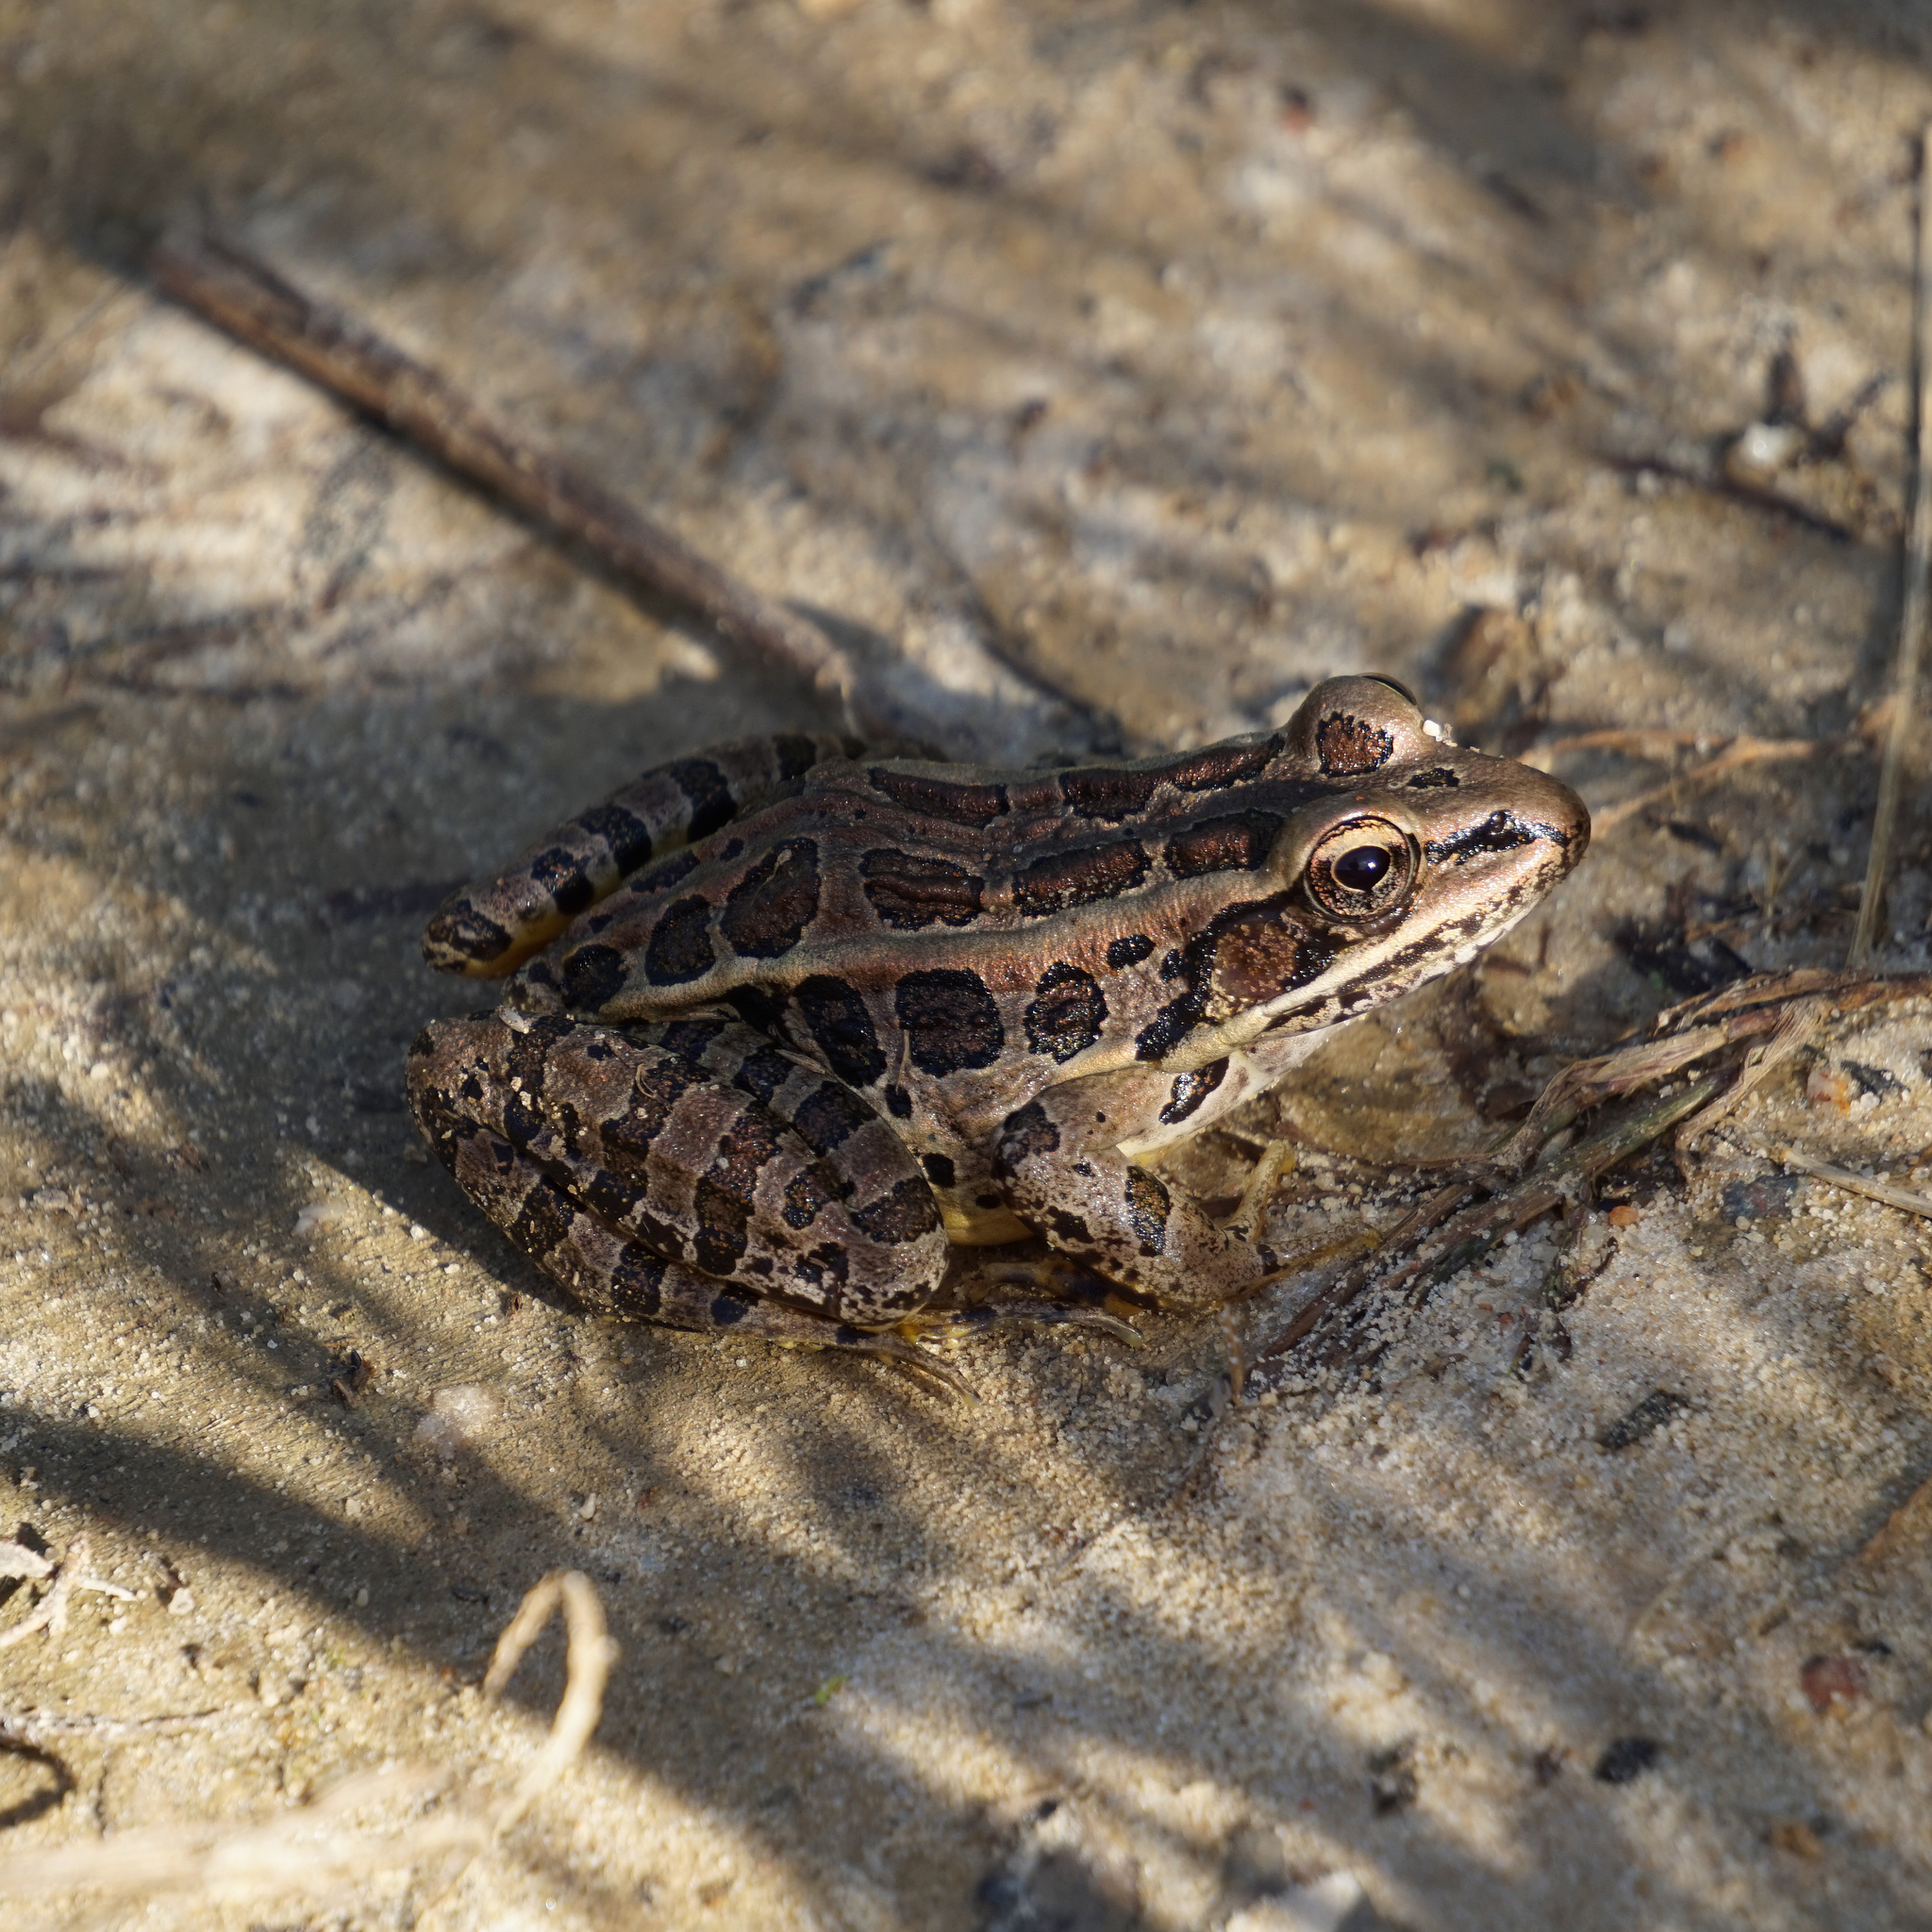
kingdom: Animalia
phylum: Chordata
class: Amphibia
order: Anura
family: Ranidae
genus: Lithobates
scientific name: Lithobates palustris
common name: Pickerel frog
